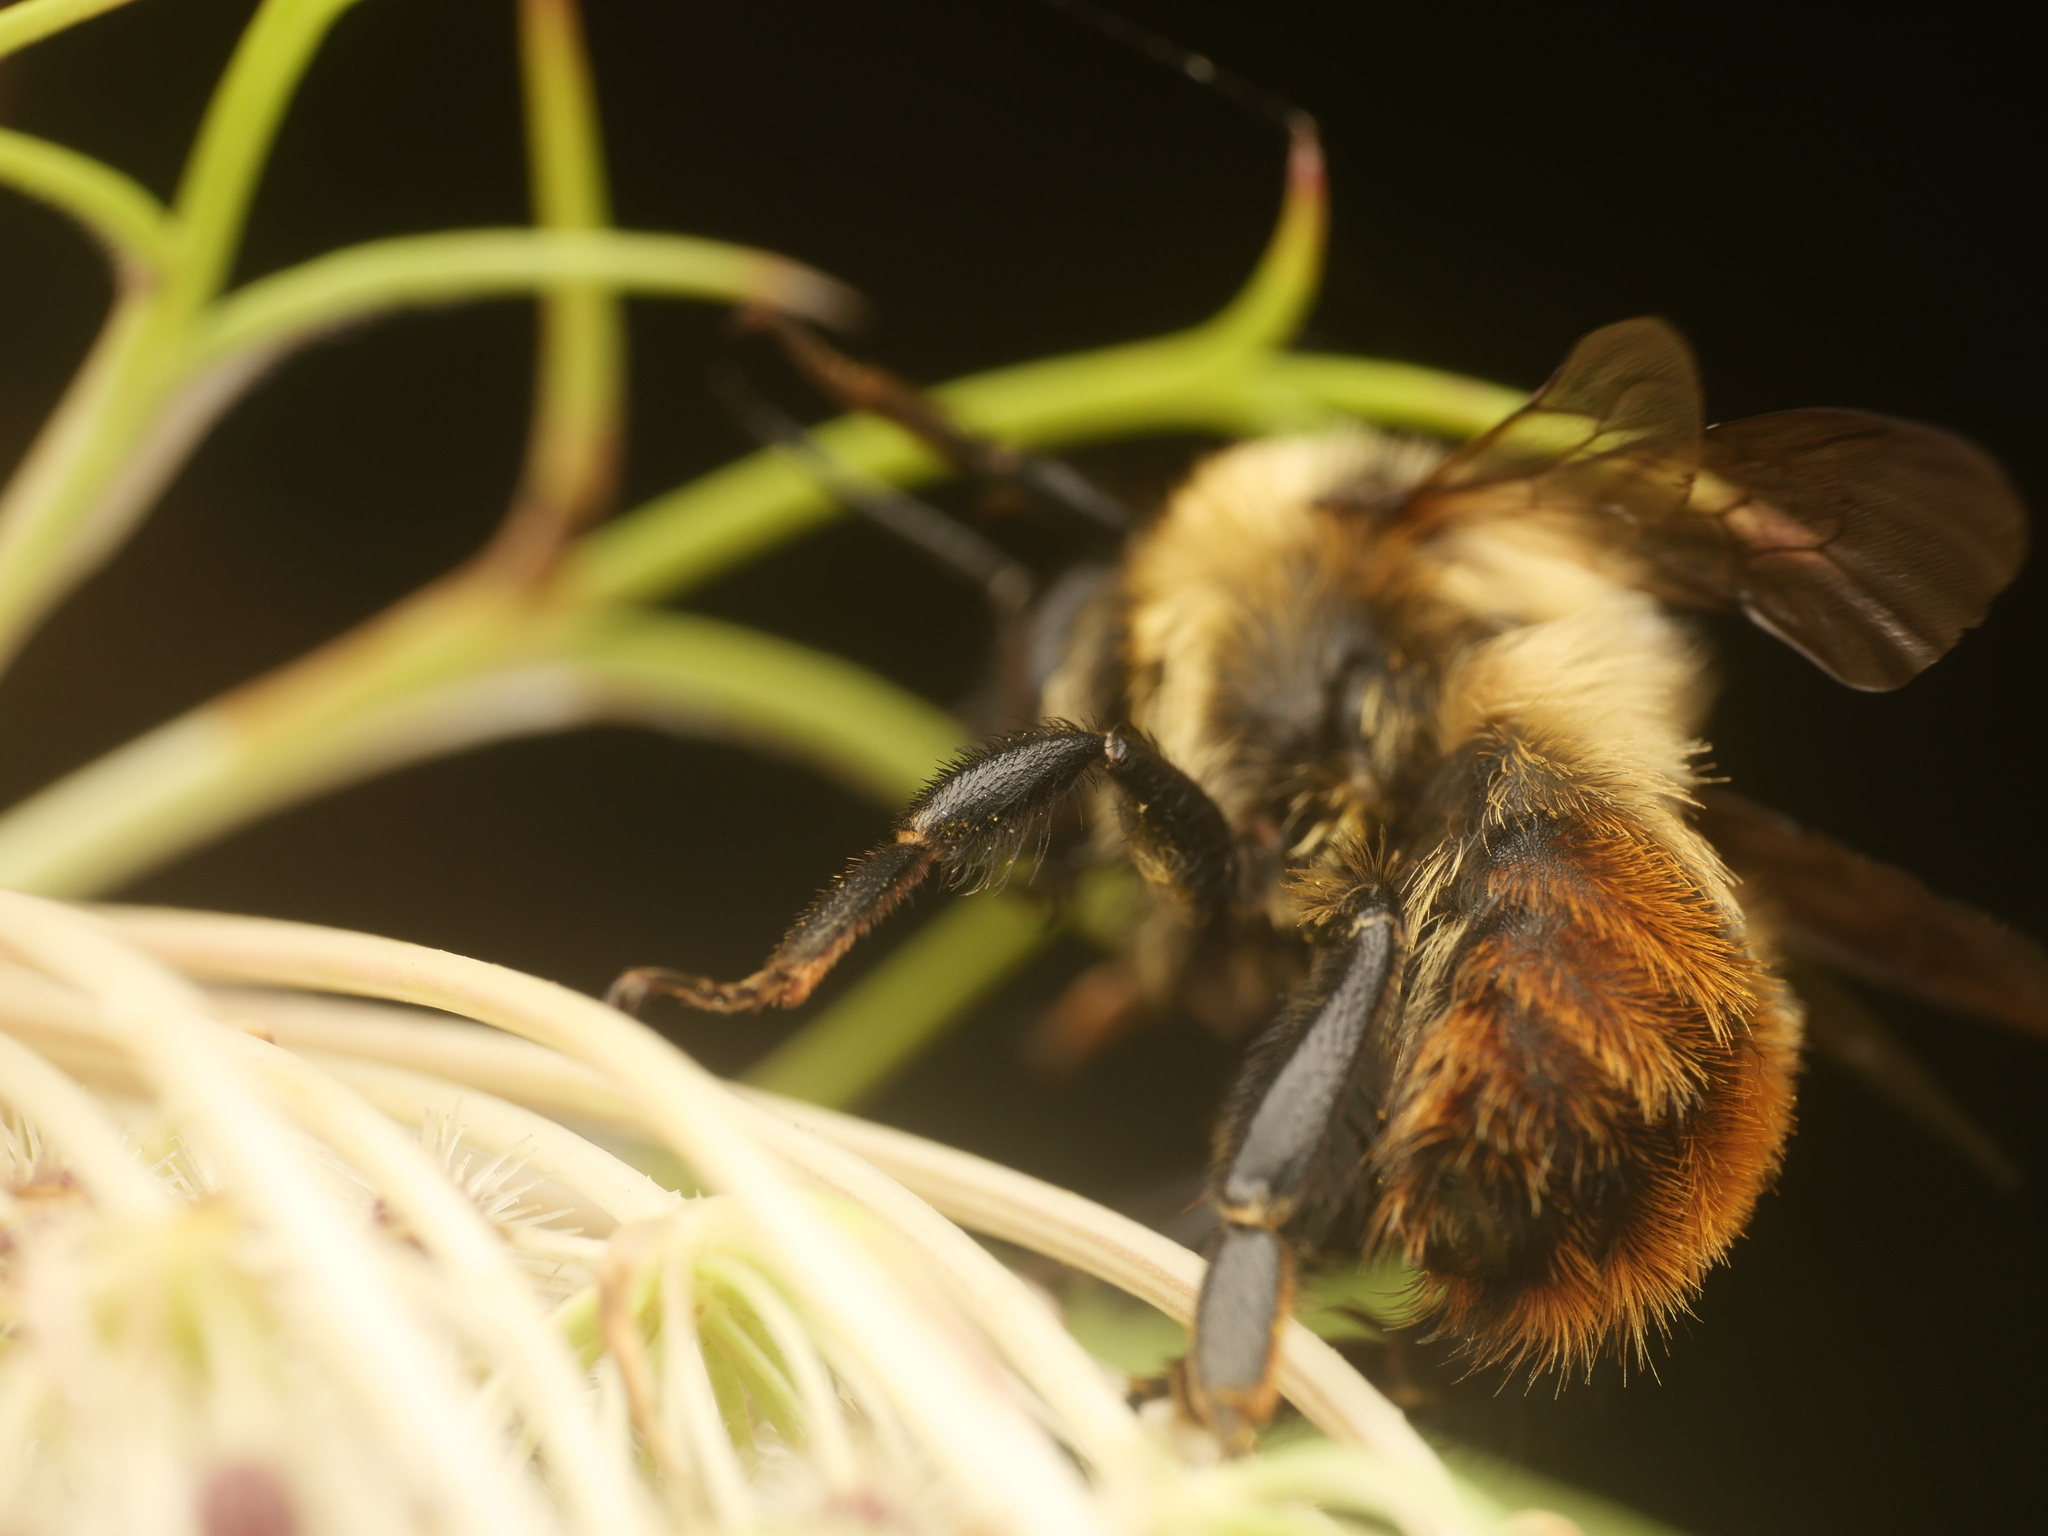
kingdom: Animalia
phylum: Arthropoda
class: Insecta
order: Hymenoptera
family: Apidae
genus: Bombus
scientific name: Bombus rufocinctus
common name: Red-belted bumble bee
